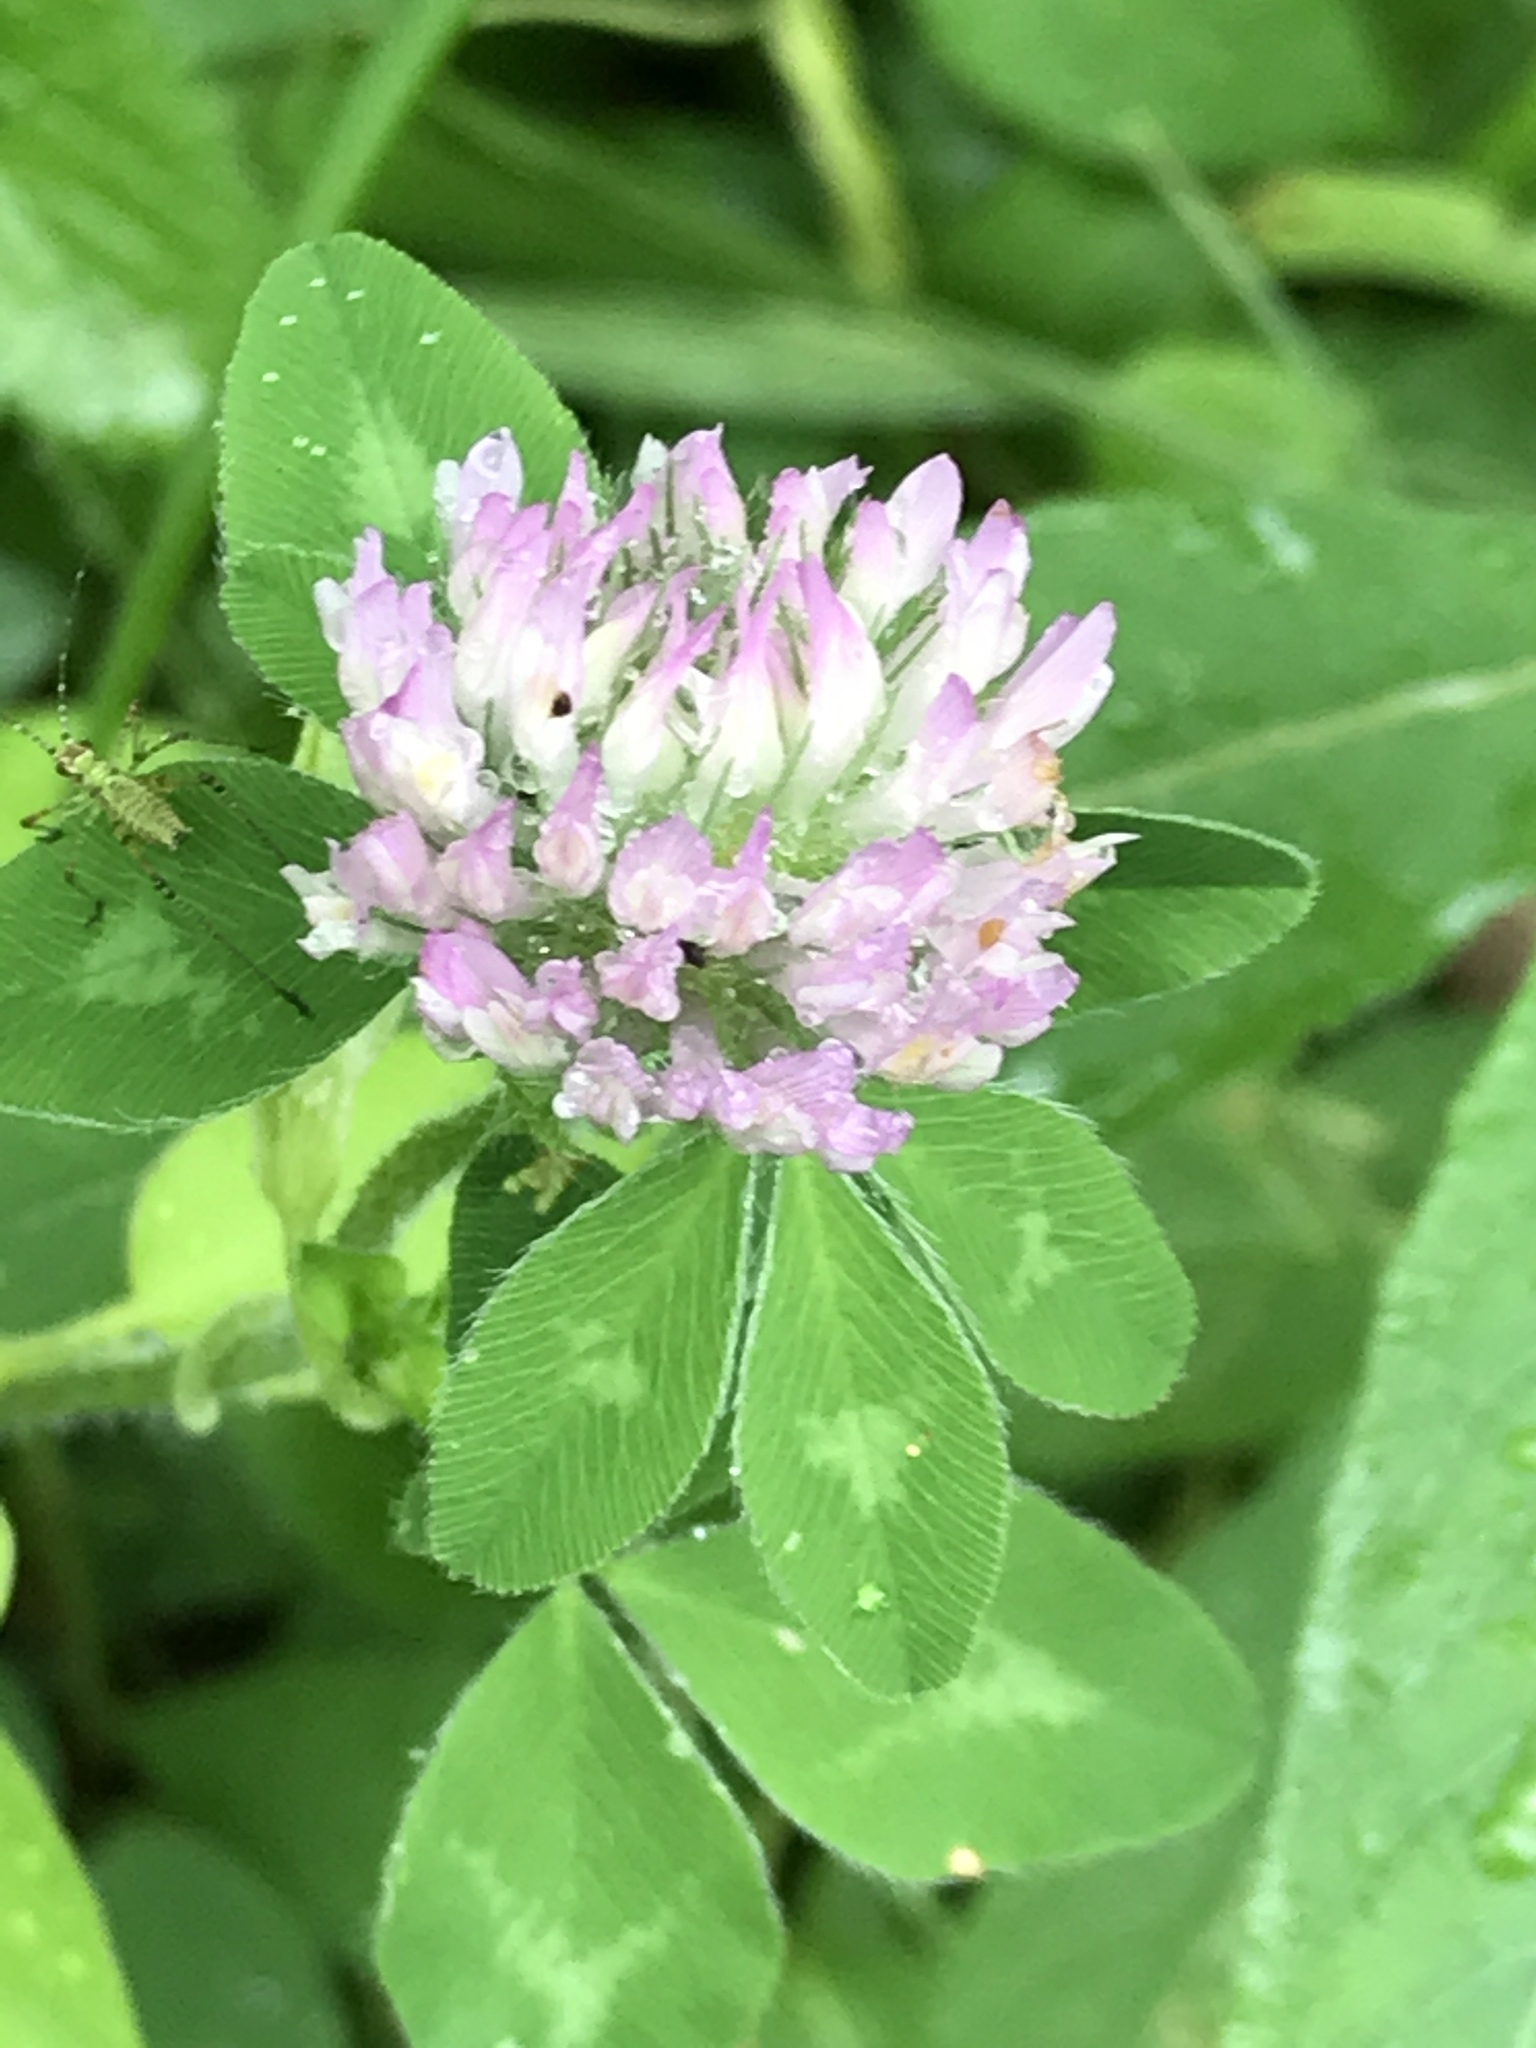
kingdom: Plantae
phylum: Tracheophyta
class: Magnoliopsida
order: Fabales
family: Fabaceae
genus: Trifolium
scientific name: Trifolium pratense
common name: Red clover
